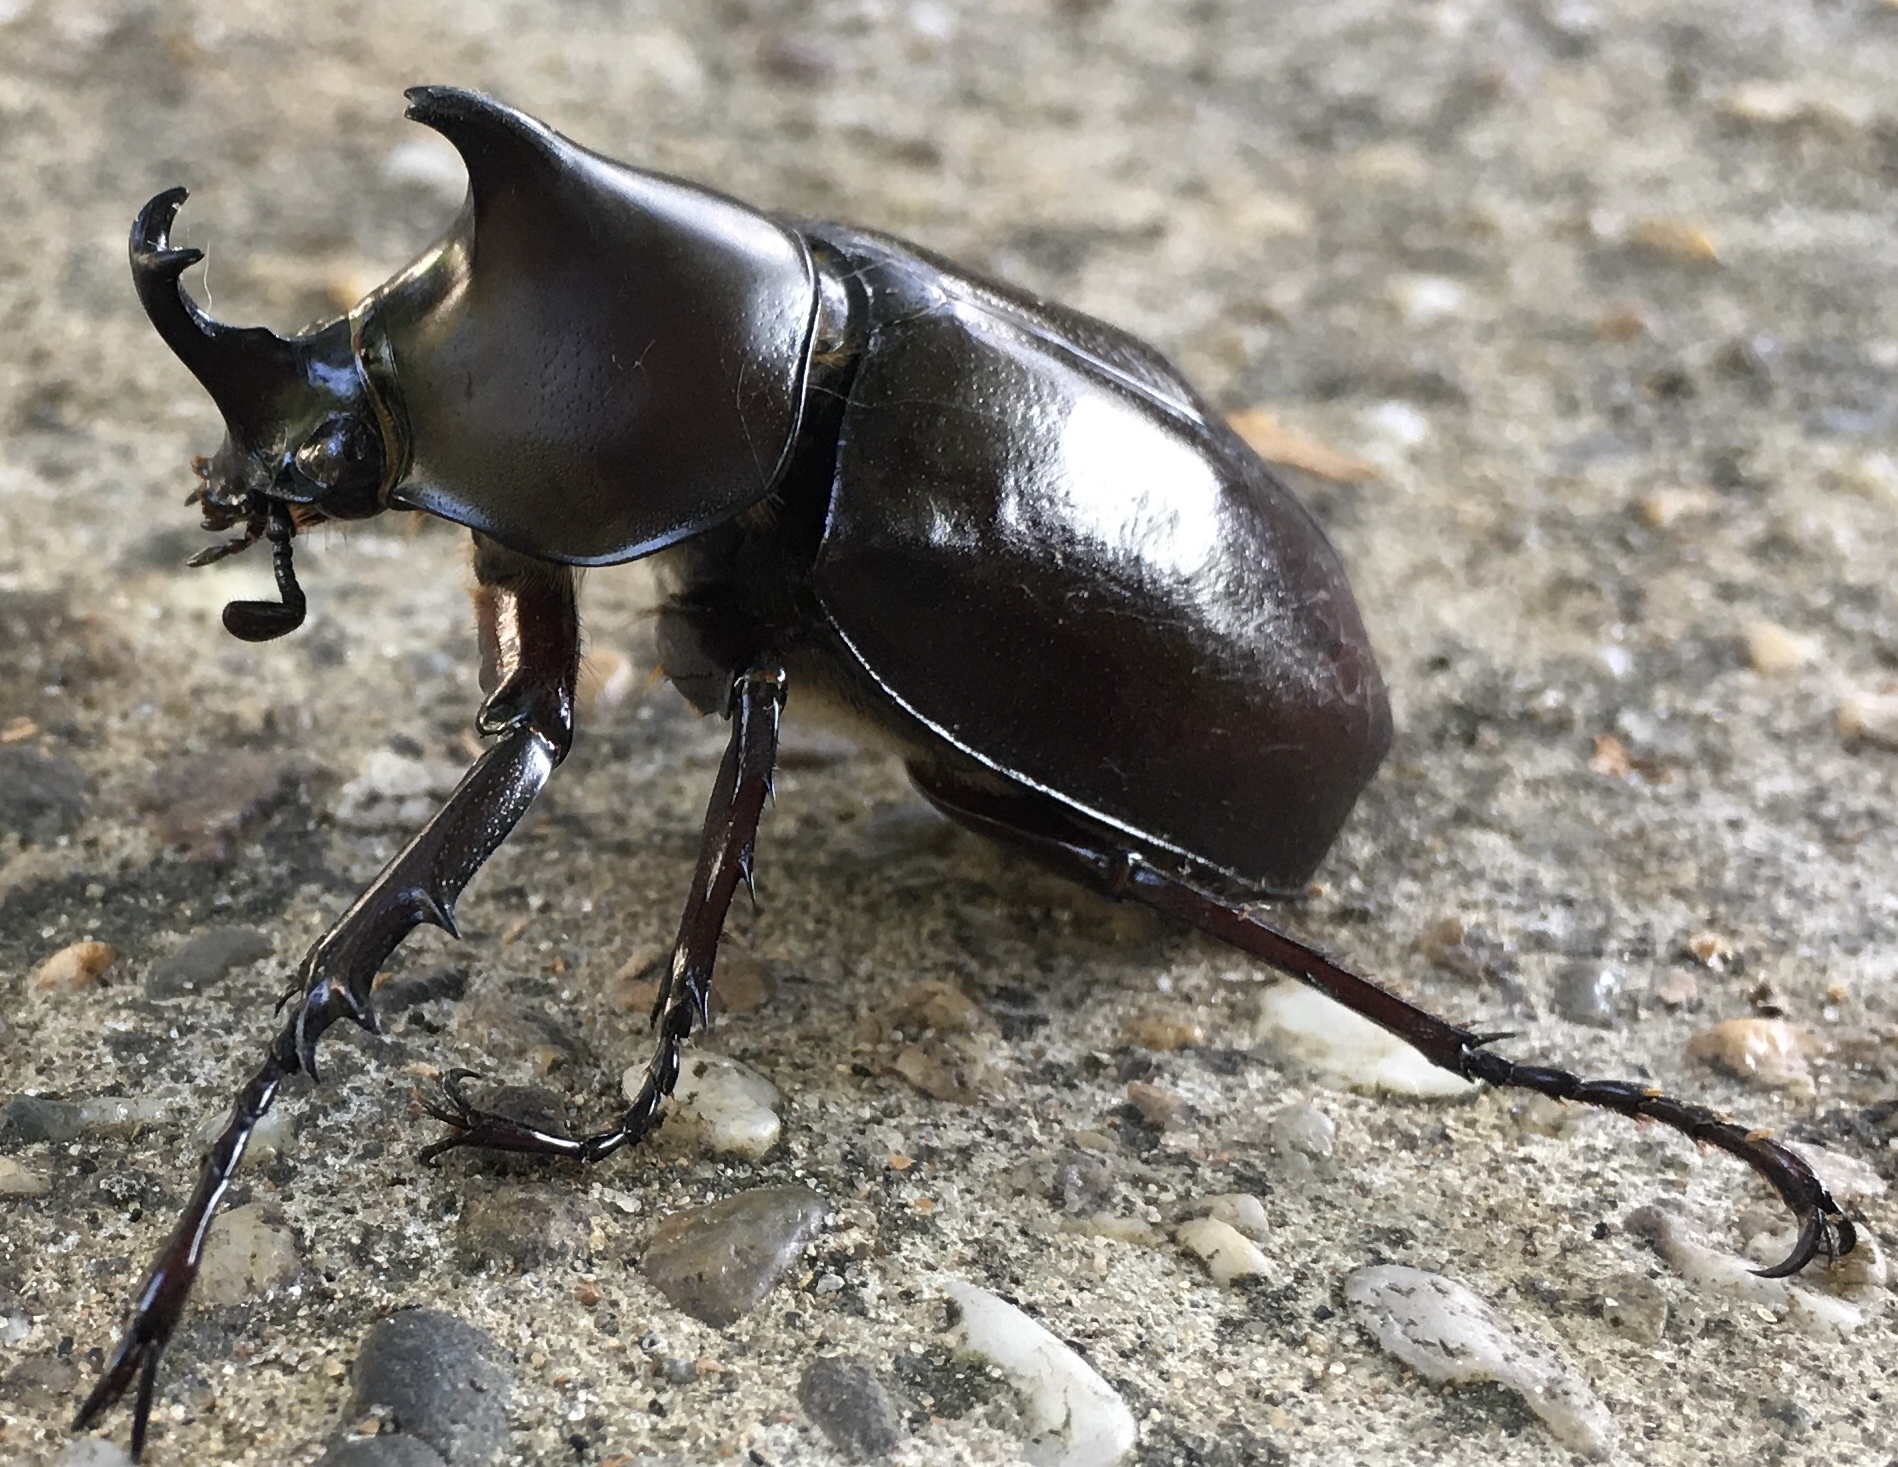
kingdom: Animalia
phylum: Arthropoda
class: Insecta
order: Coleoptera
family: Scarabaeidae
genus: Xylotrupes
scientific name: Xylotrupes socrates
